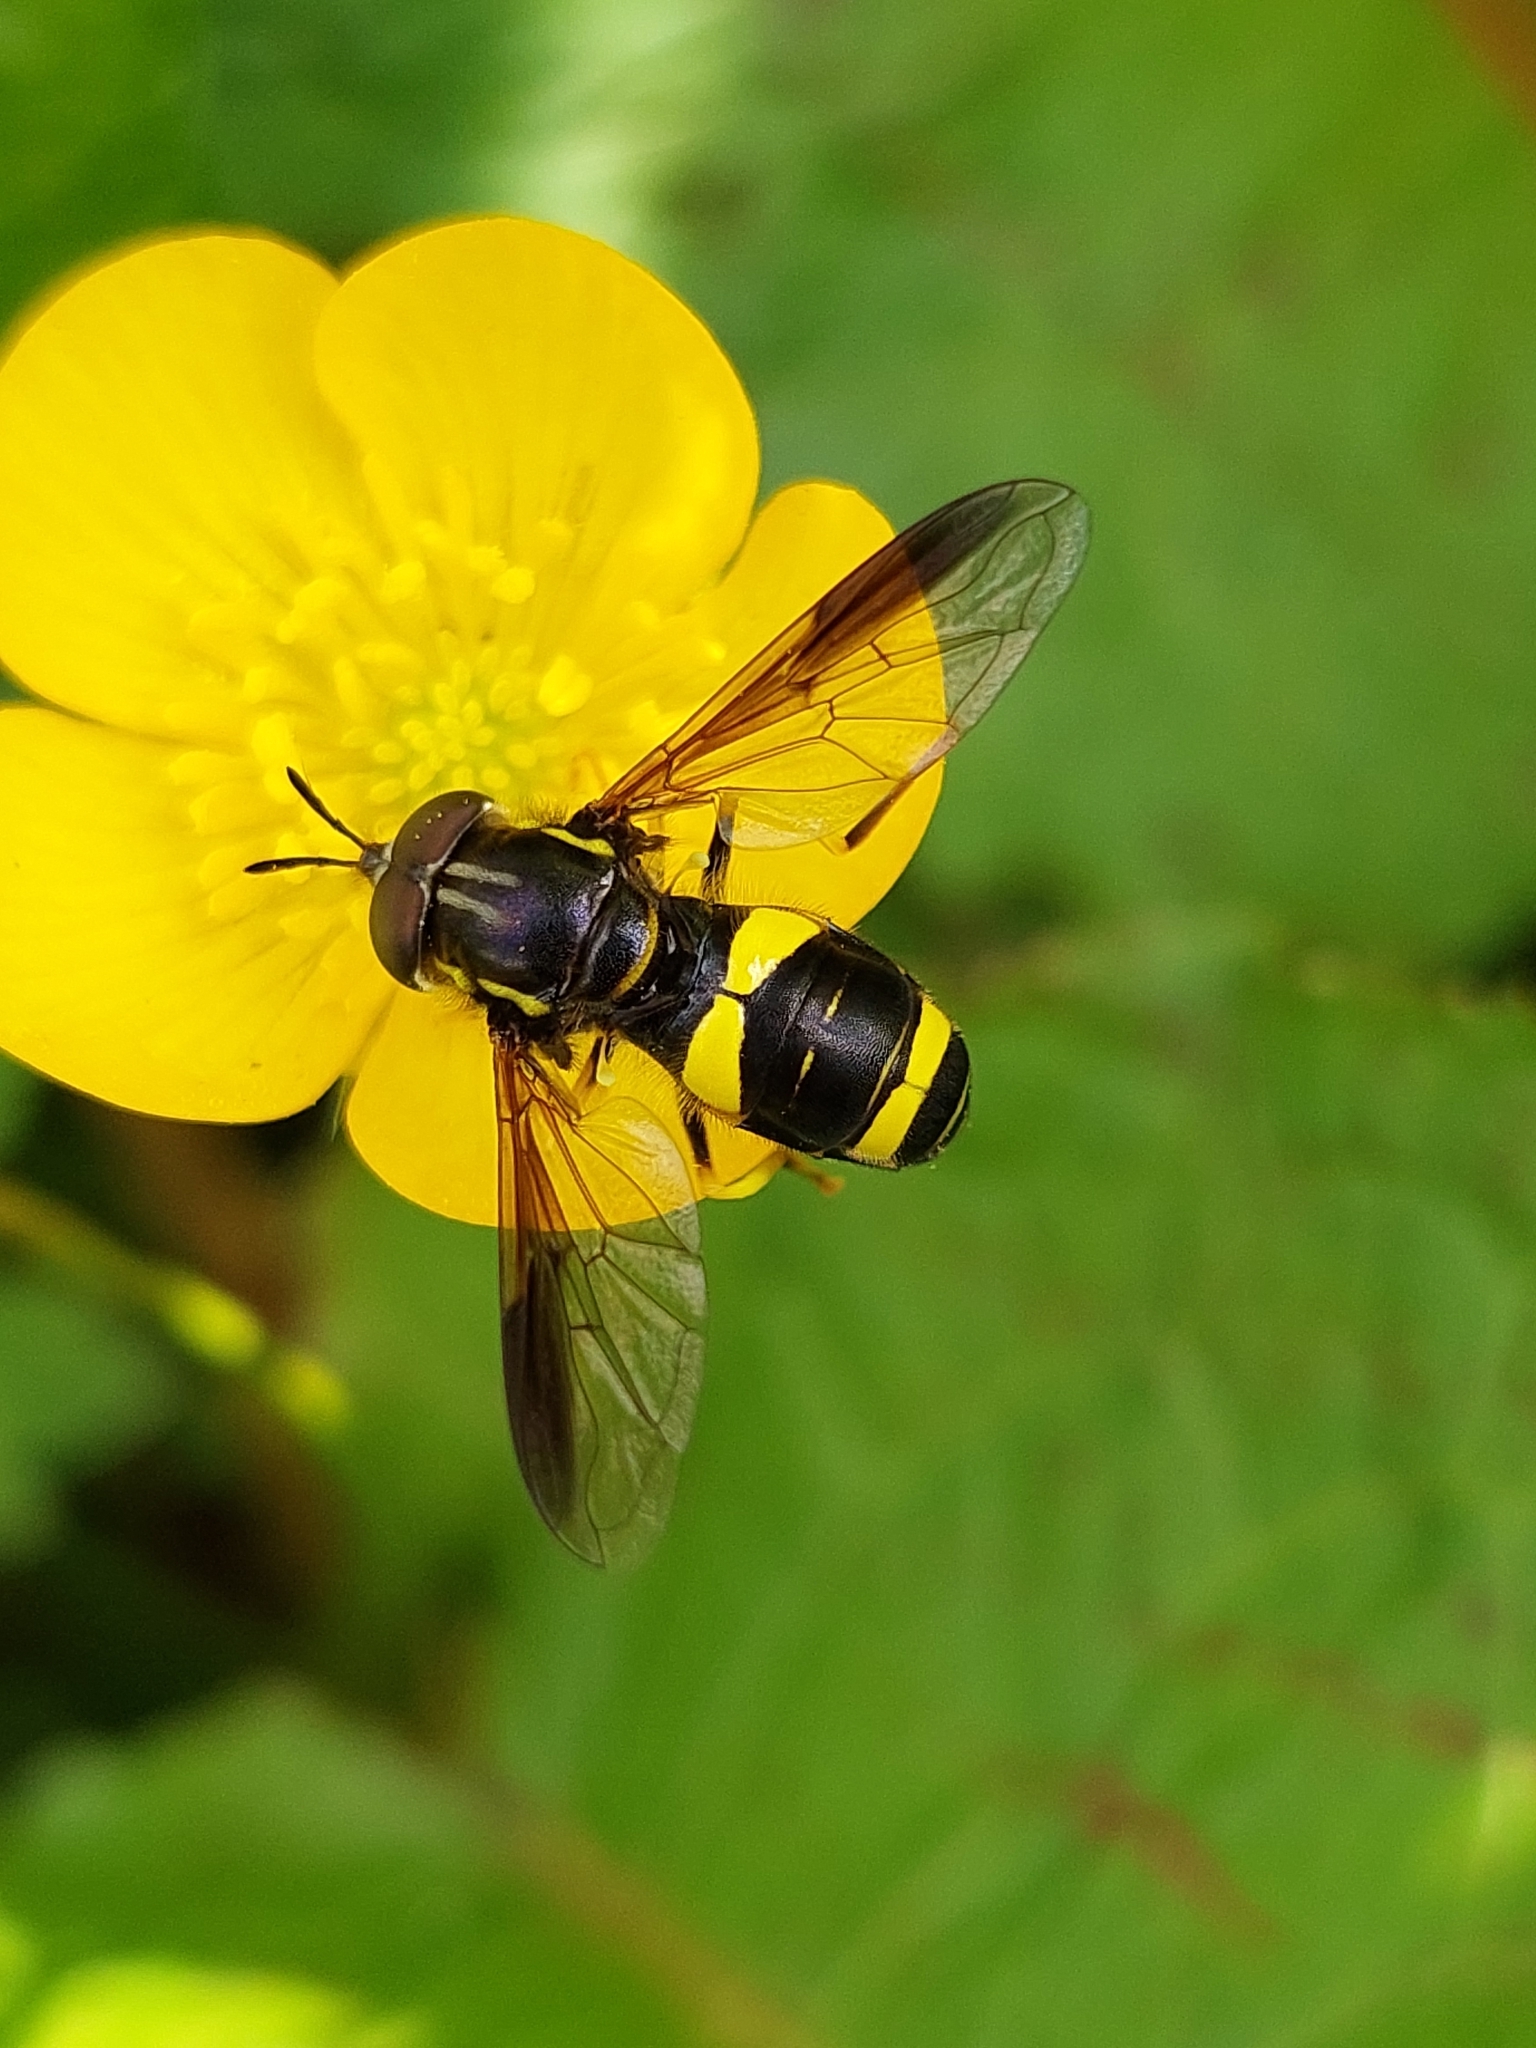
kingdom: Animalia
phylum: Arthropoda
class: Insecta
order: Diptera
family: Syrphidae
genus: Chrysotoxum
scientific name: Chrysotoxum bicincta
